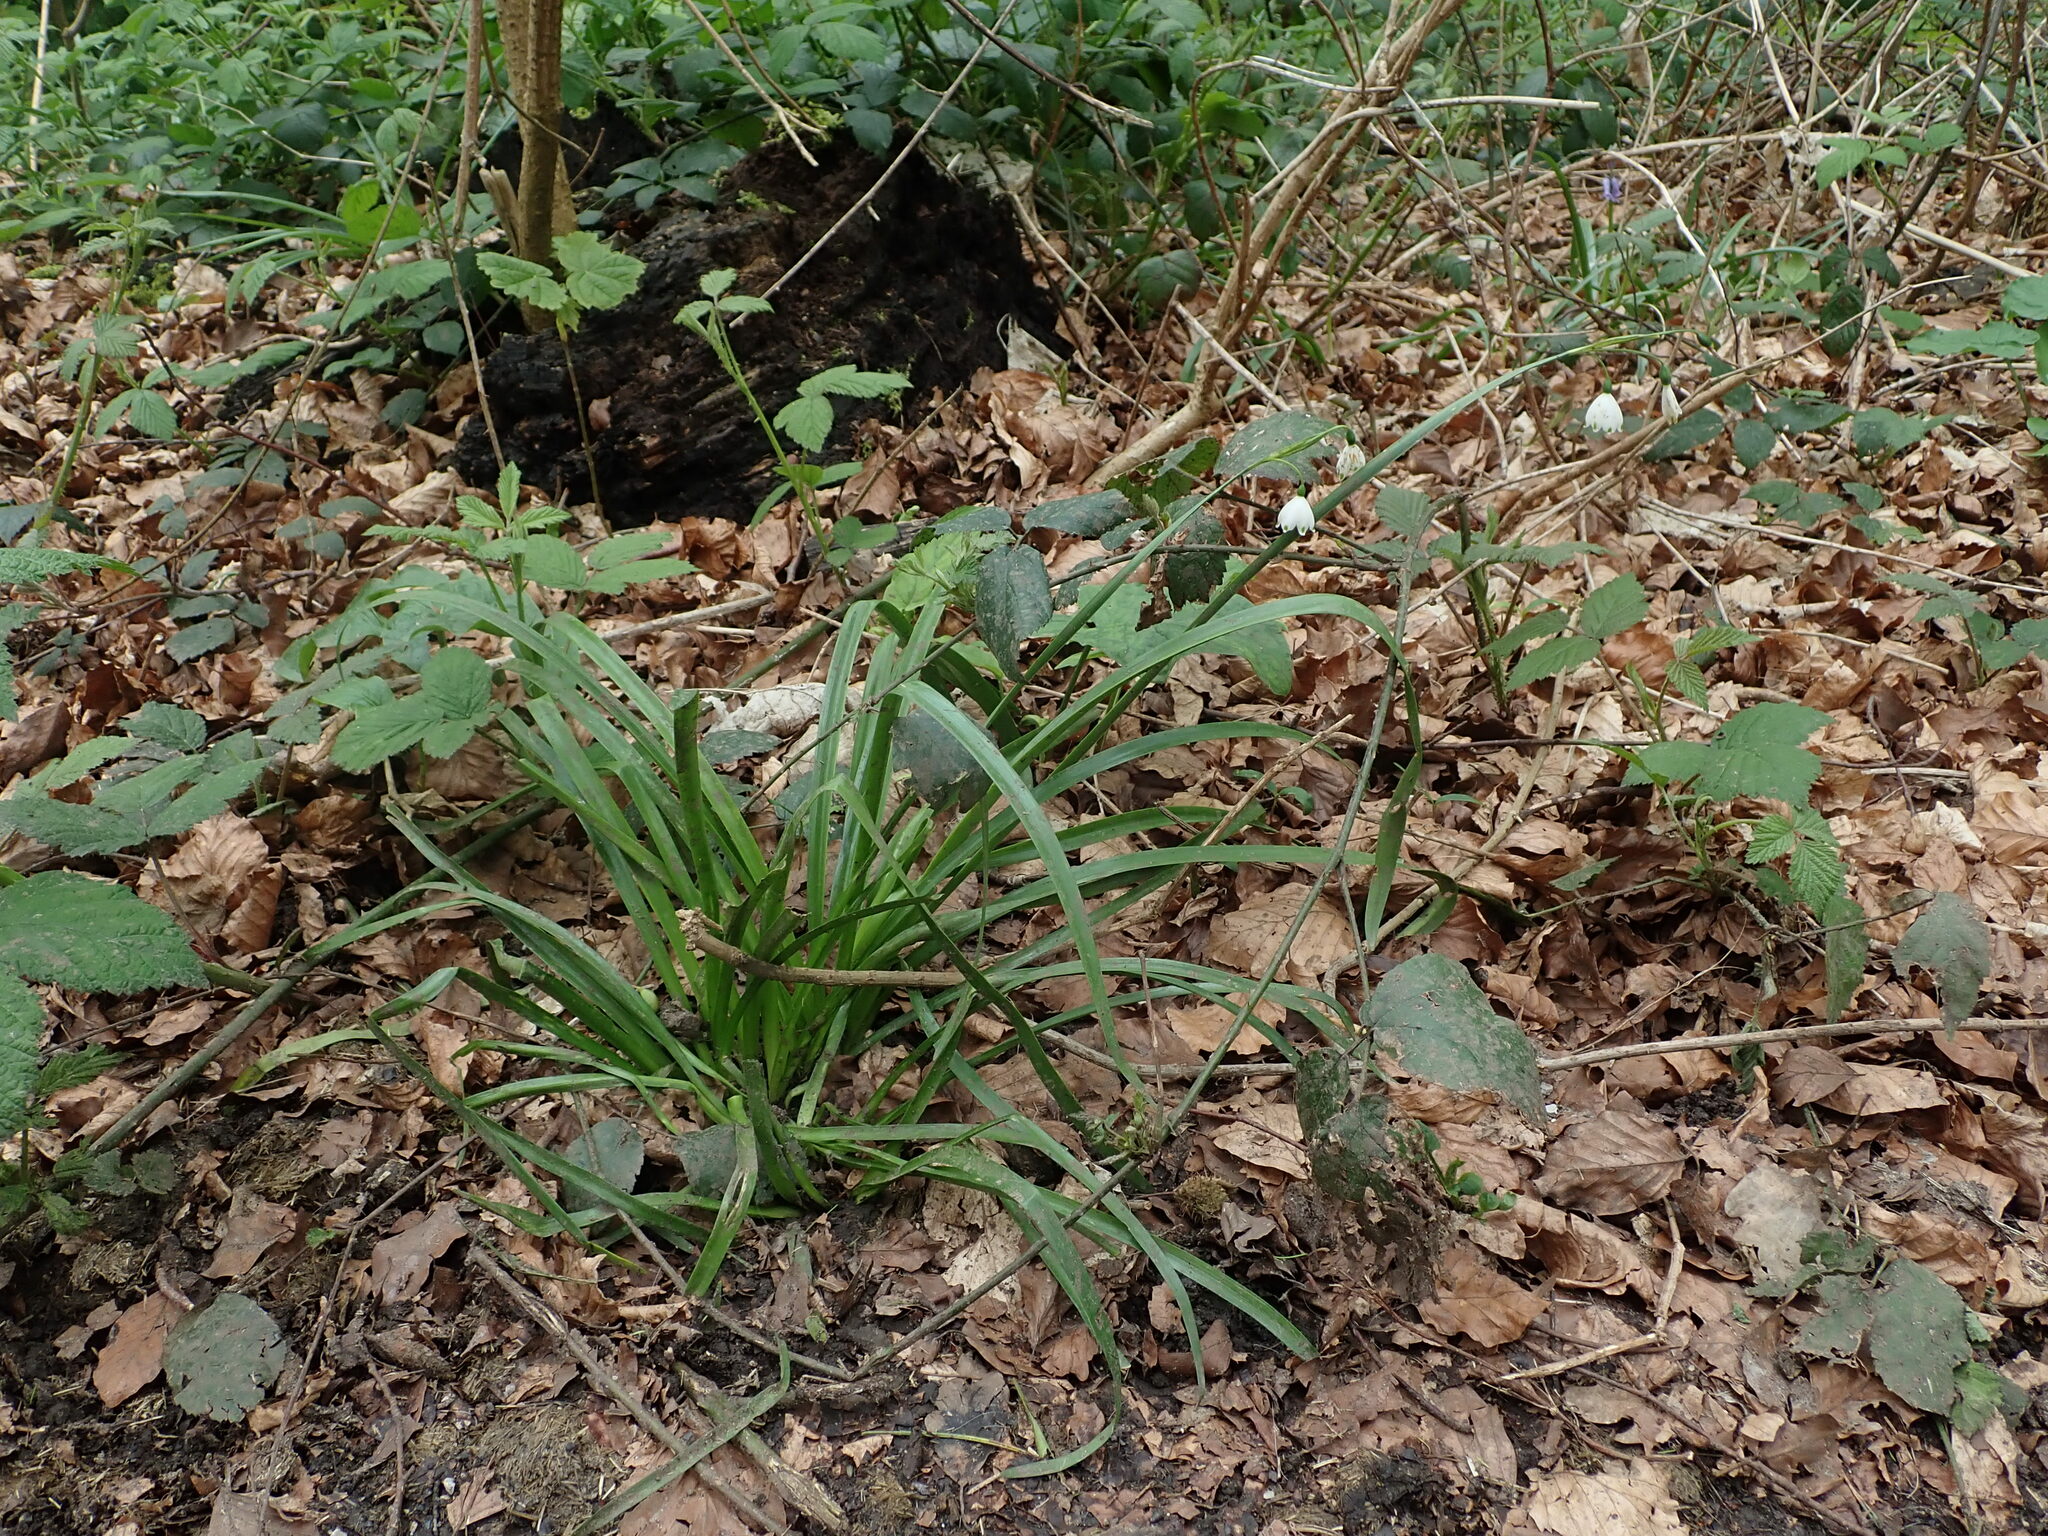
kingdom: Plantae
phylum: Tracheophyta
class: Liliopsida
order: Asparagales
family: Amaryllidaceae
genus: Leucojum
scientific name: Leucojum aestivum
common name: Summer snowflake
